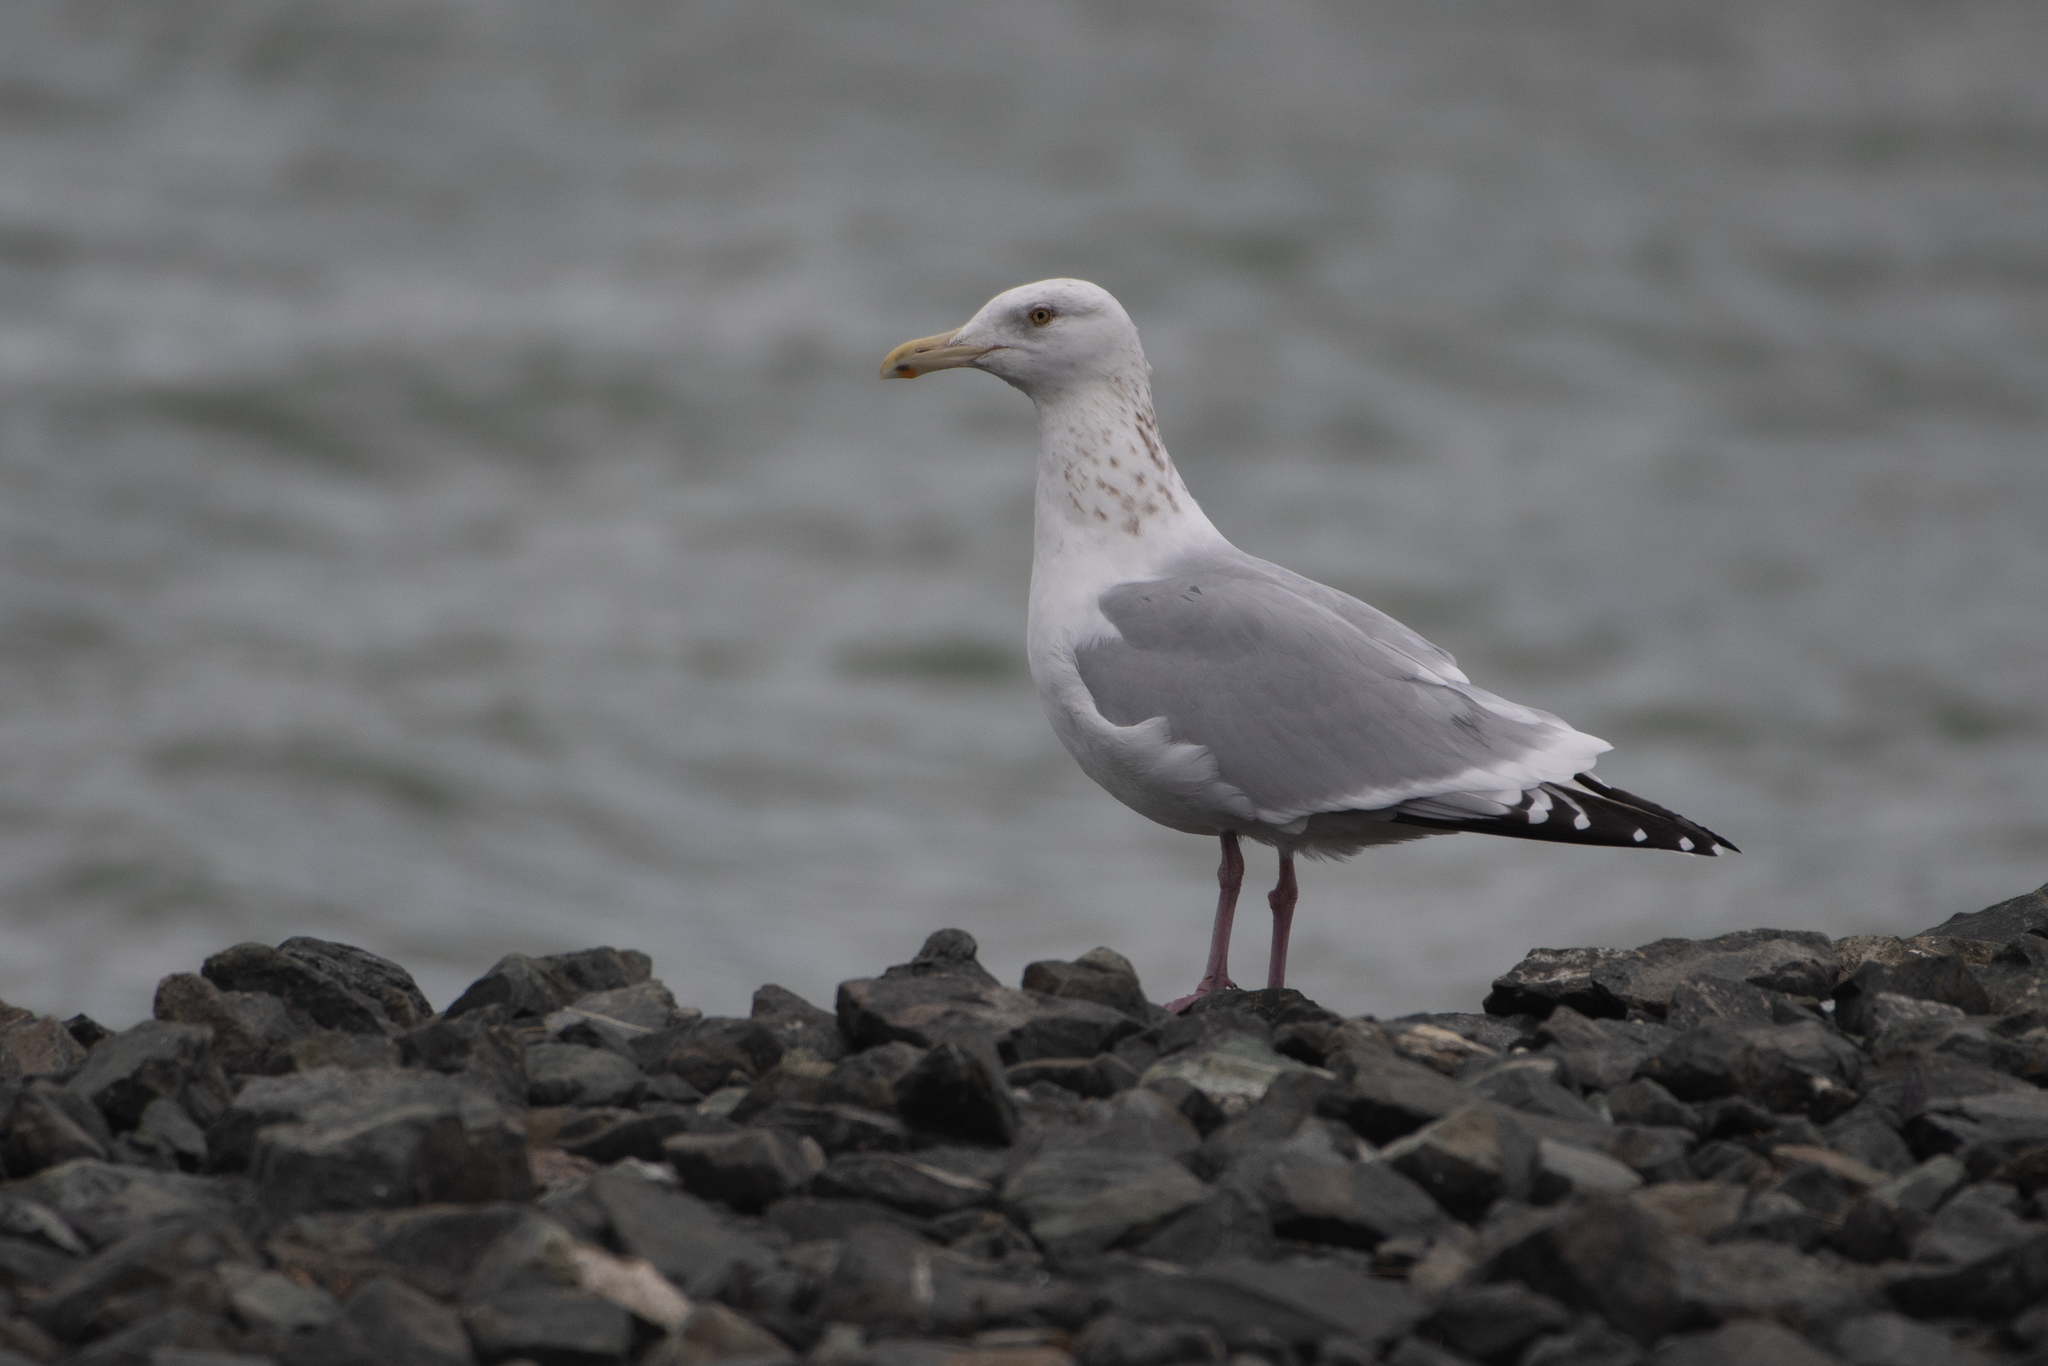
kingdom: Animalia
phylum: Chordata
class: Aves
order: Charadriiformes
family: Laridae
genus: Larus
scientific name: Larus argentatus
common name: Herring gull
